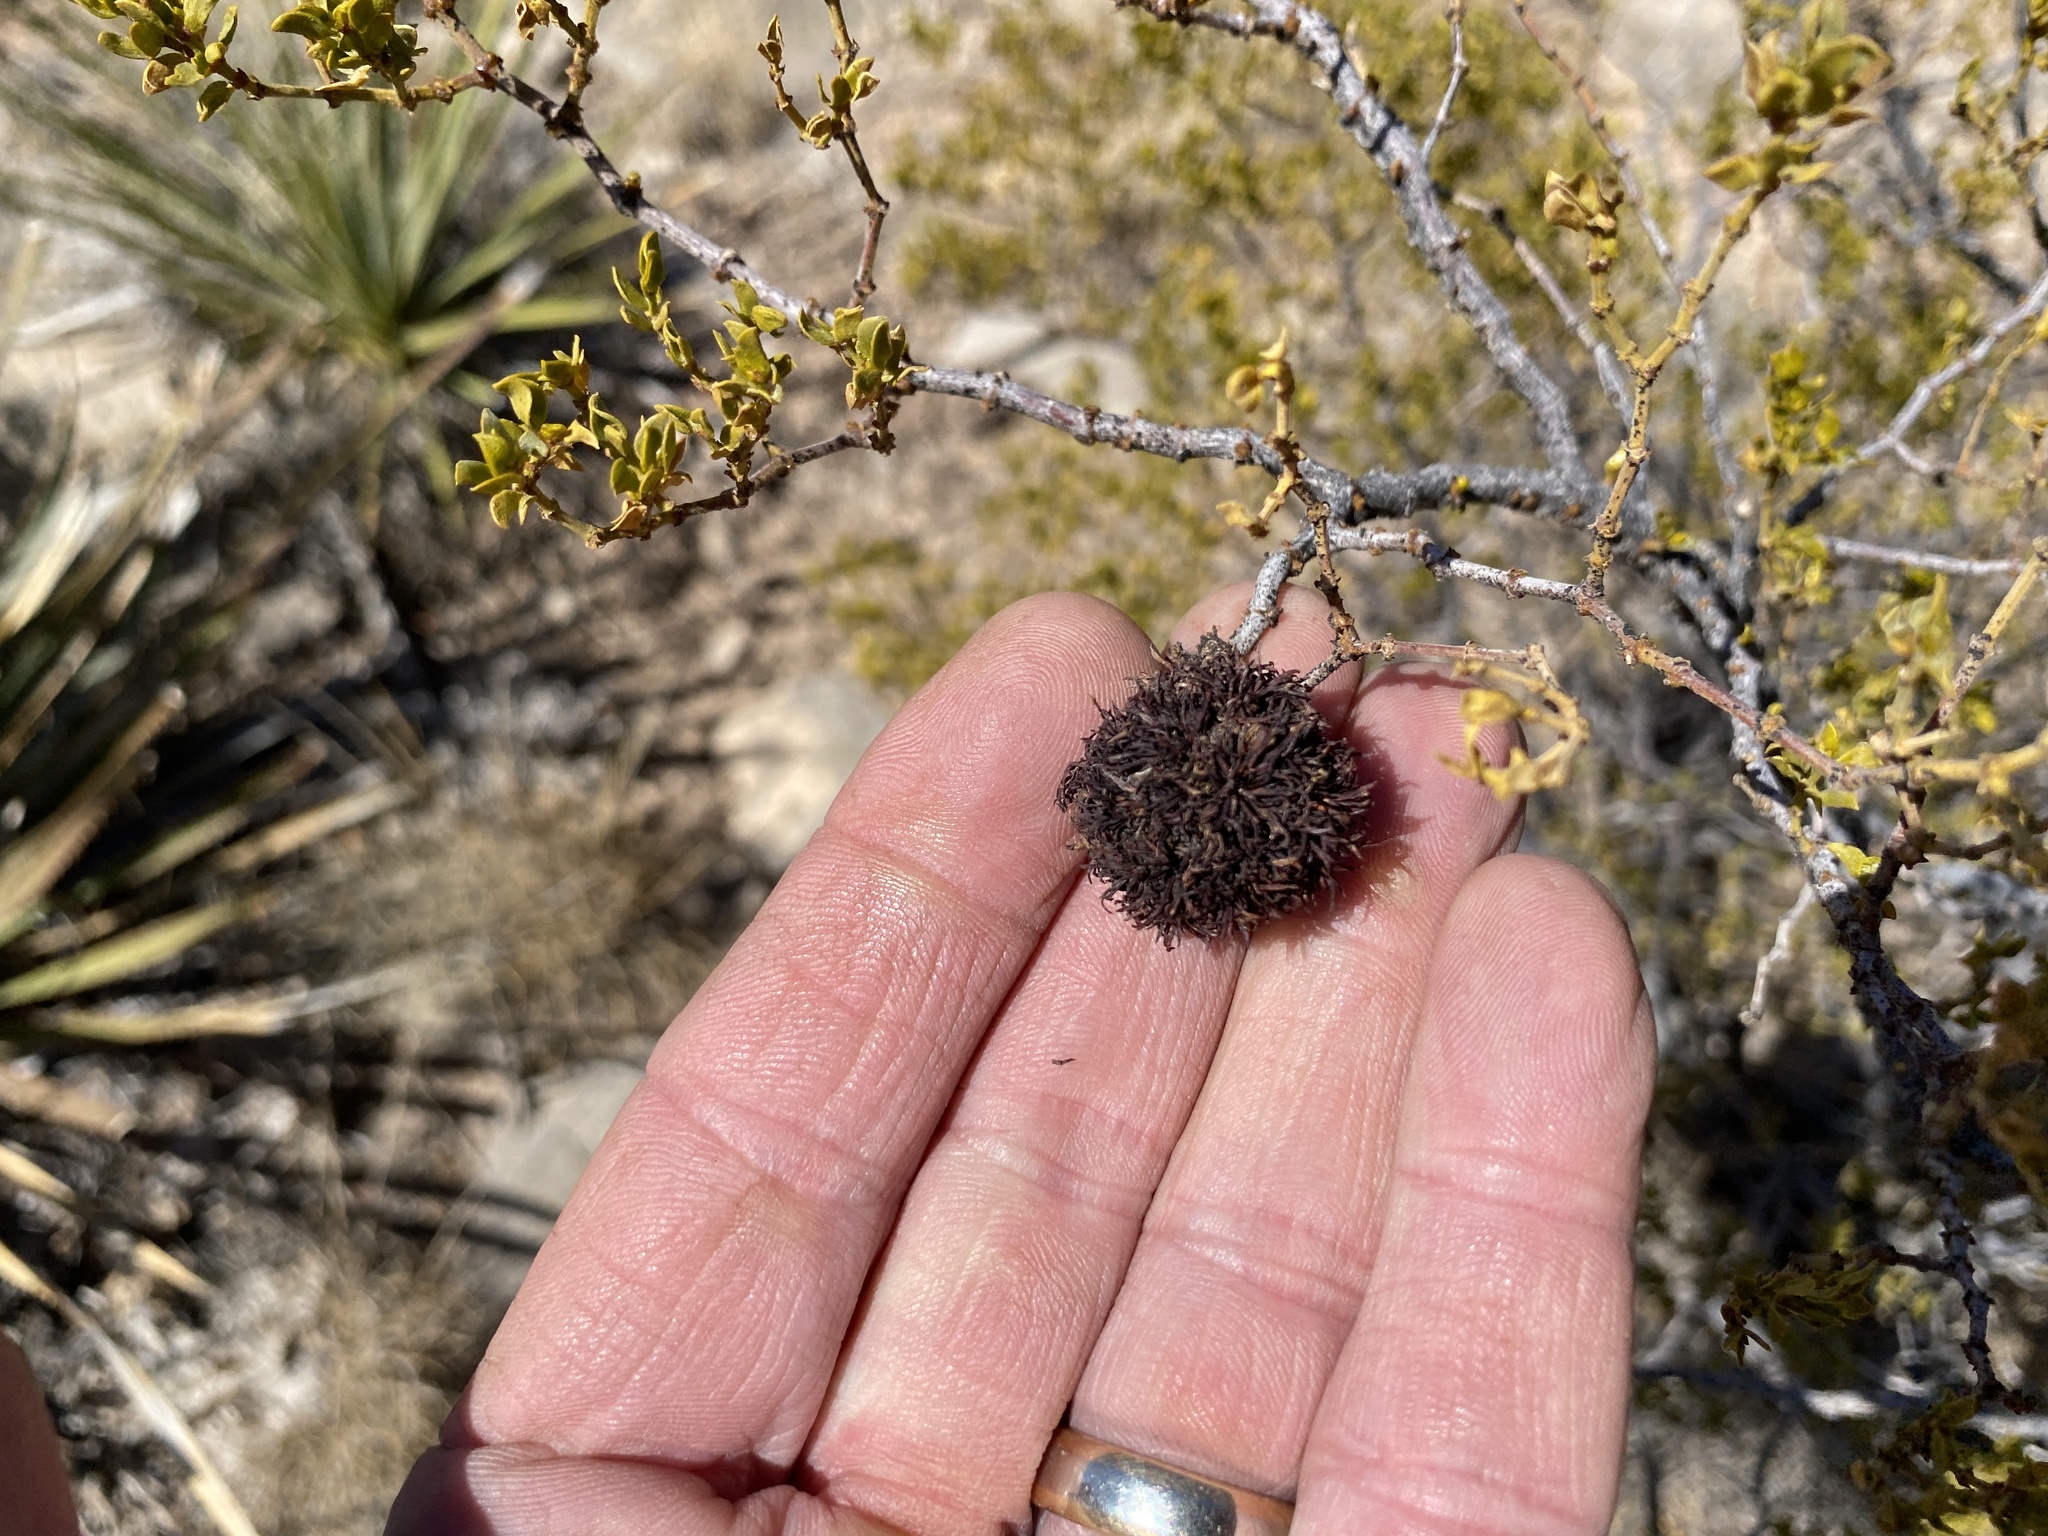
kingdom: Animalia
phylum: Arthropoda
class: Insecta
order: Diptera
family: Cecidomyiidae
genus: Asphondylia
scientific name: Asphondylia auripila
